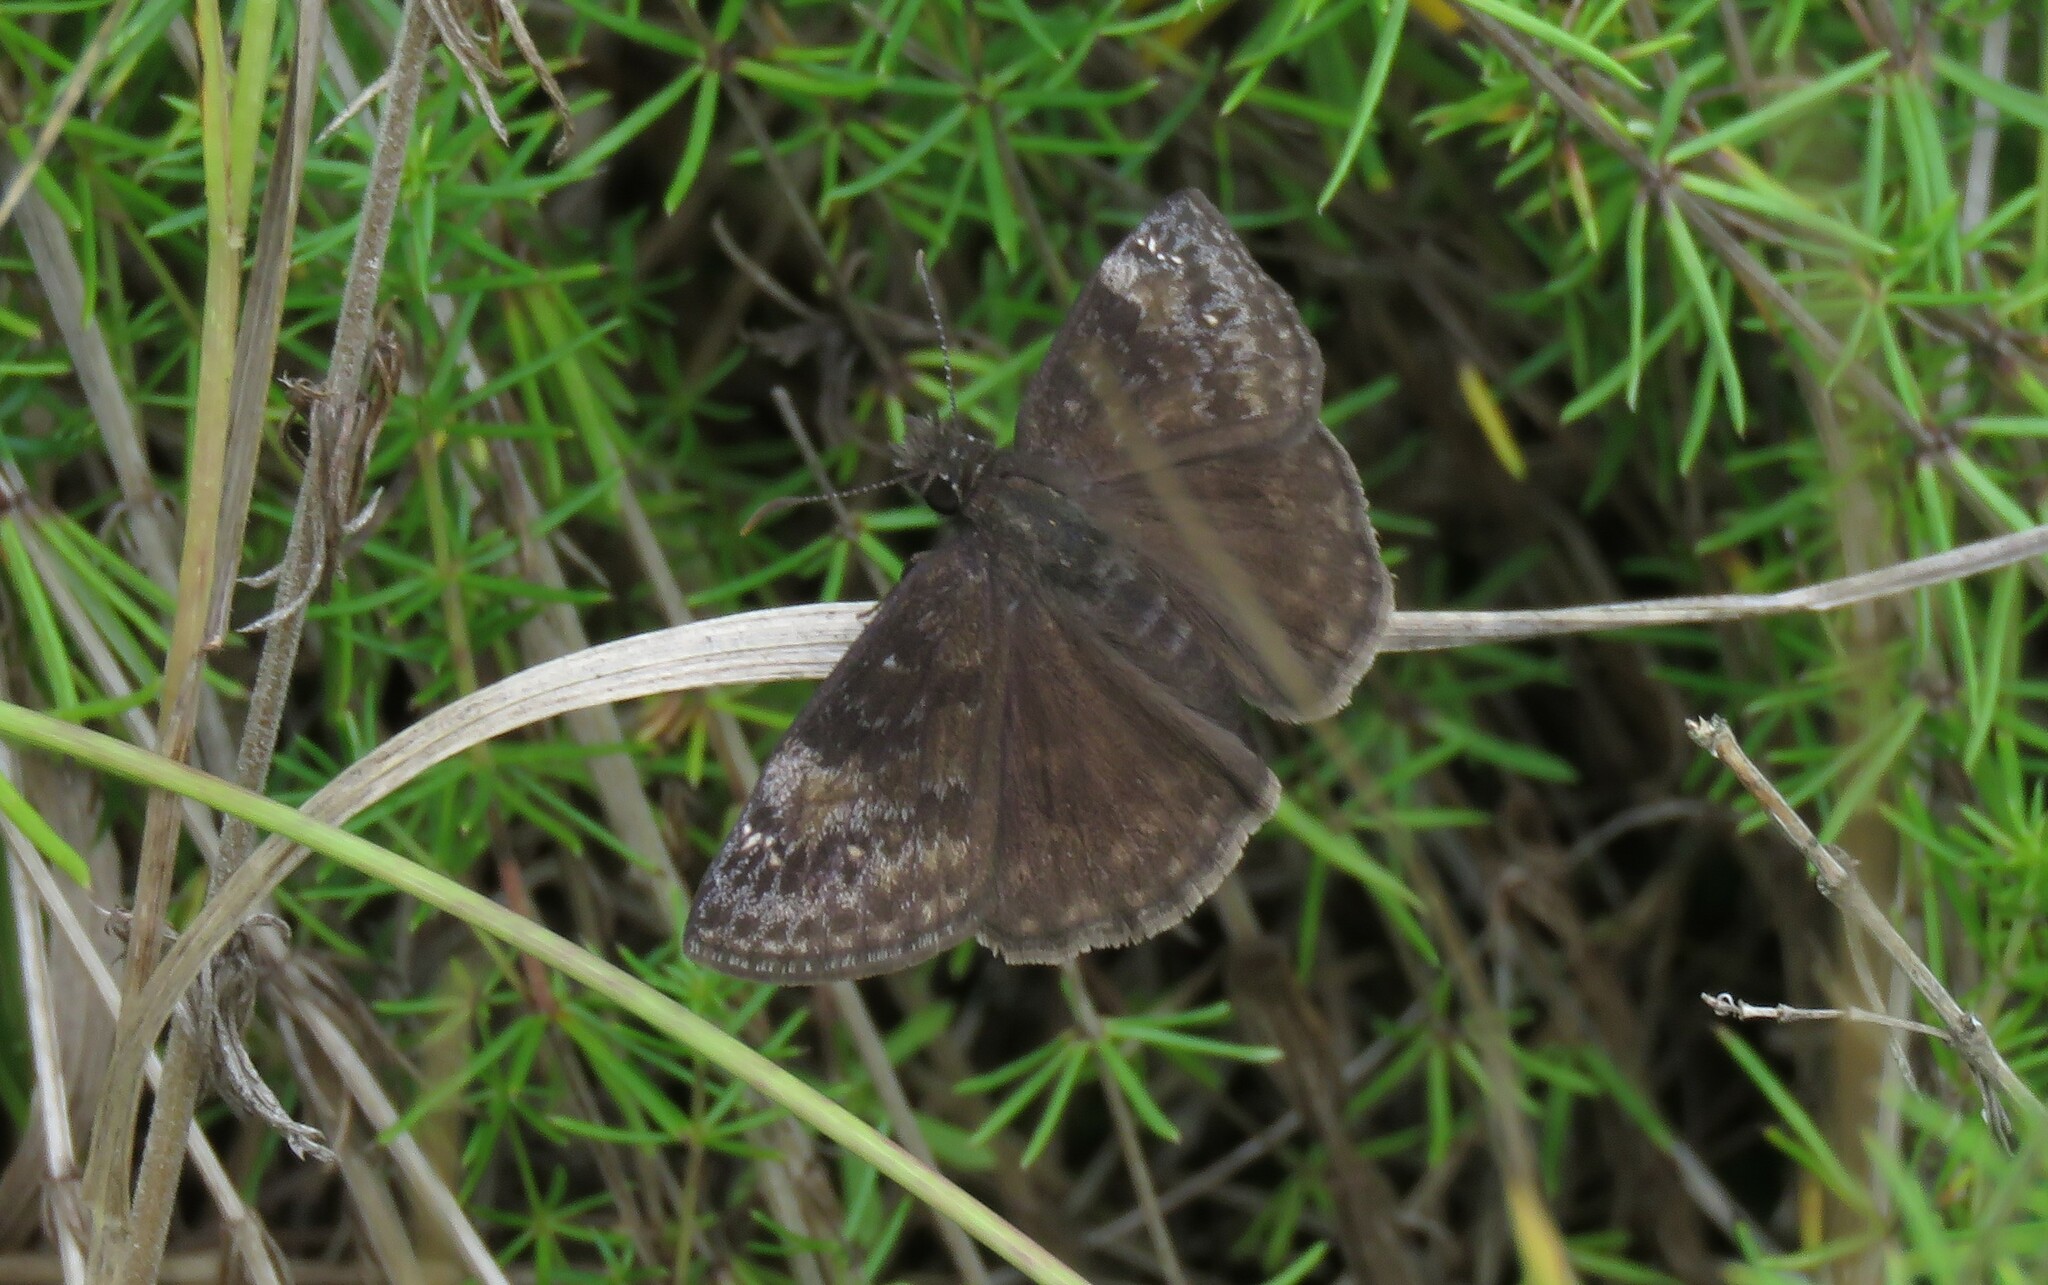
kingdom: Animalia
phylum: Arthropoda
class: Insecta
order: Lepidoptera
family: Hesperiidae
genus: Erynnis
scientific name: Erynnis baptisiae
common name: Wild indigo duskywing
